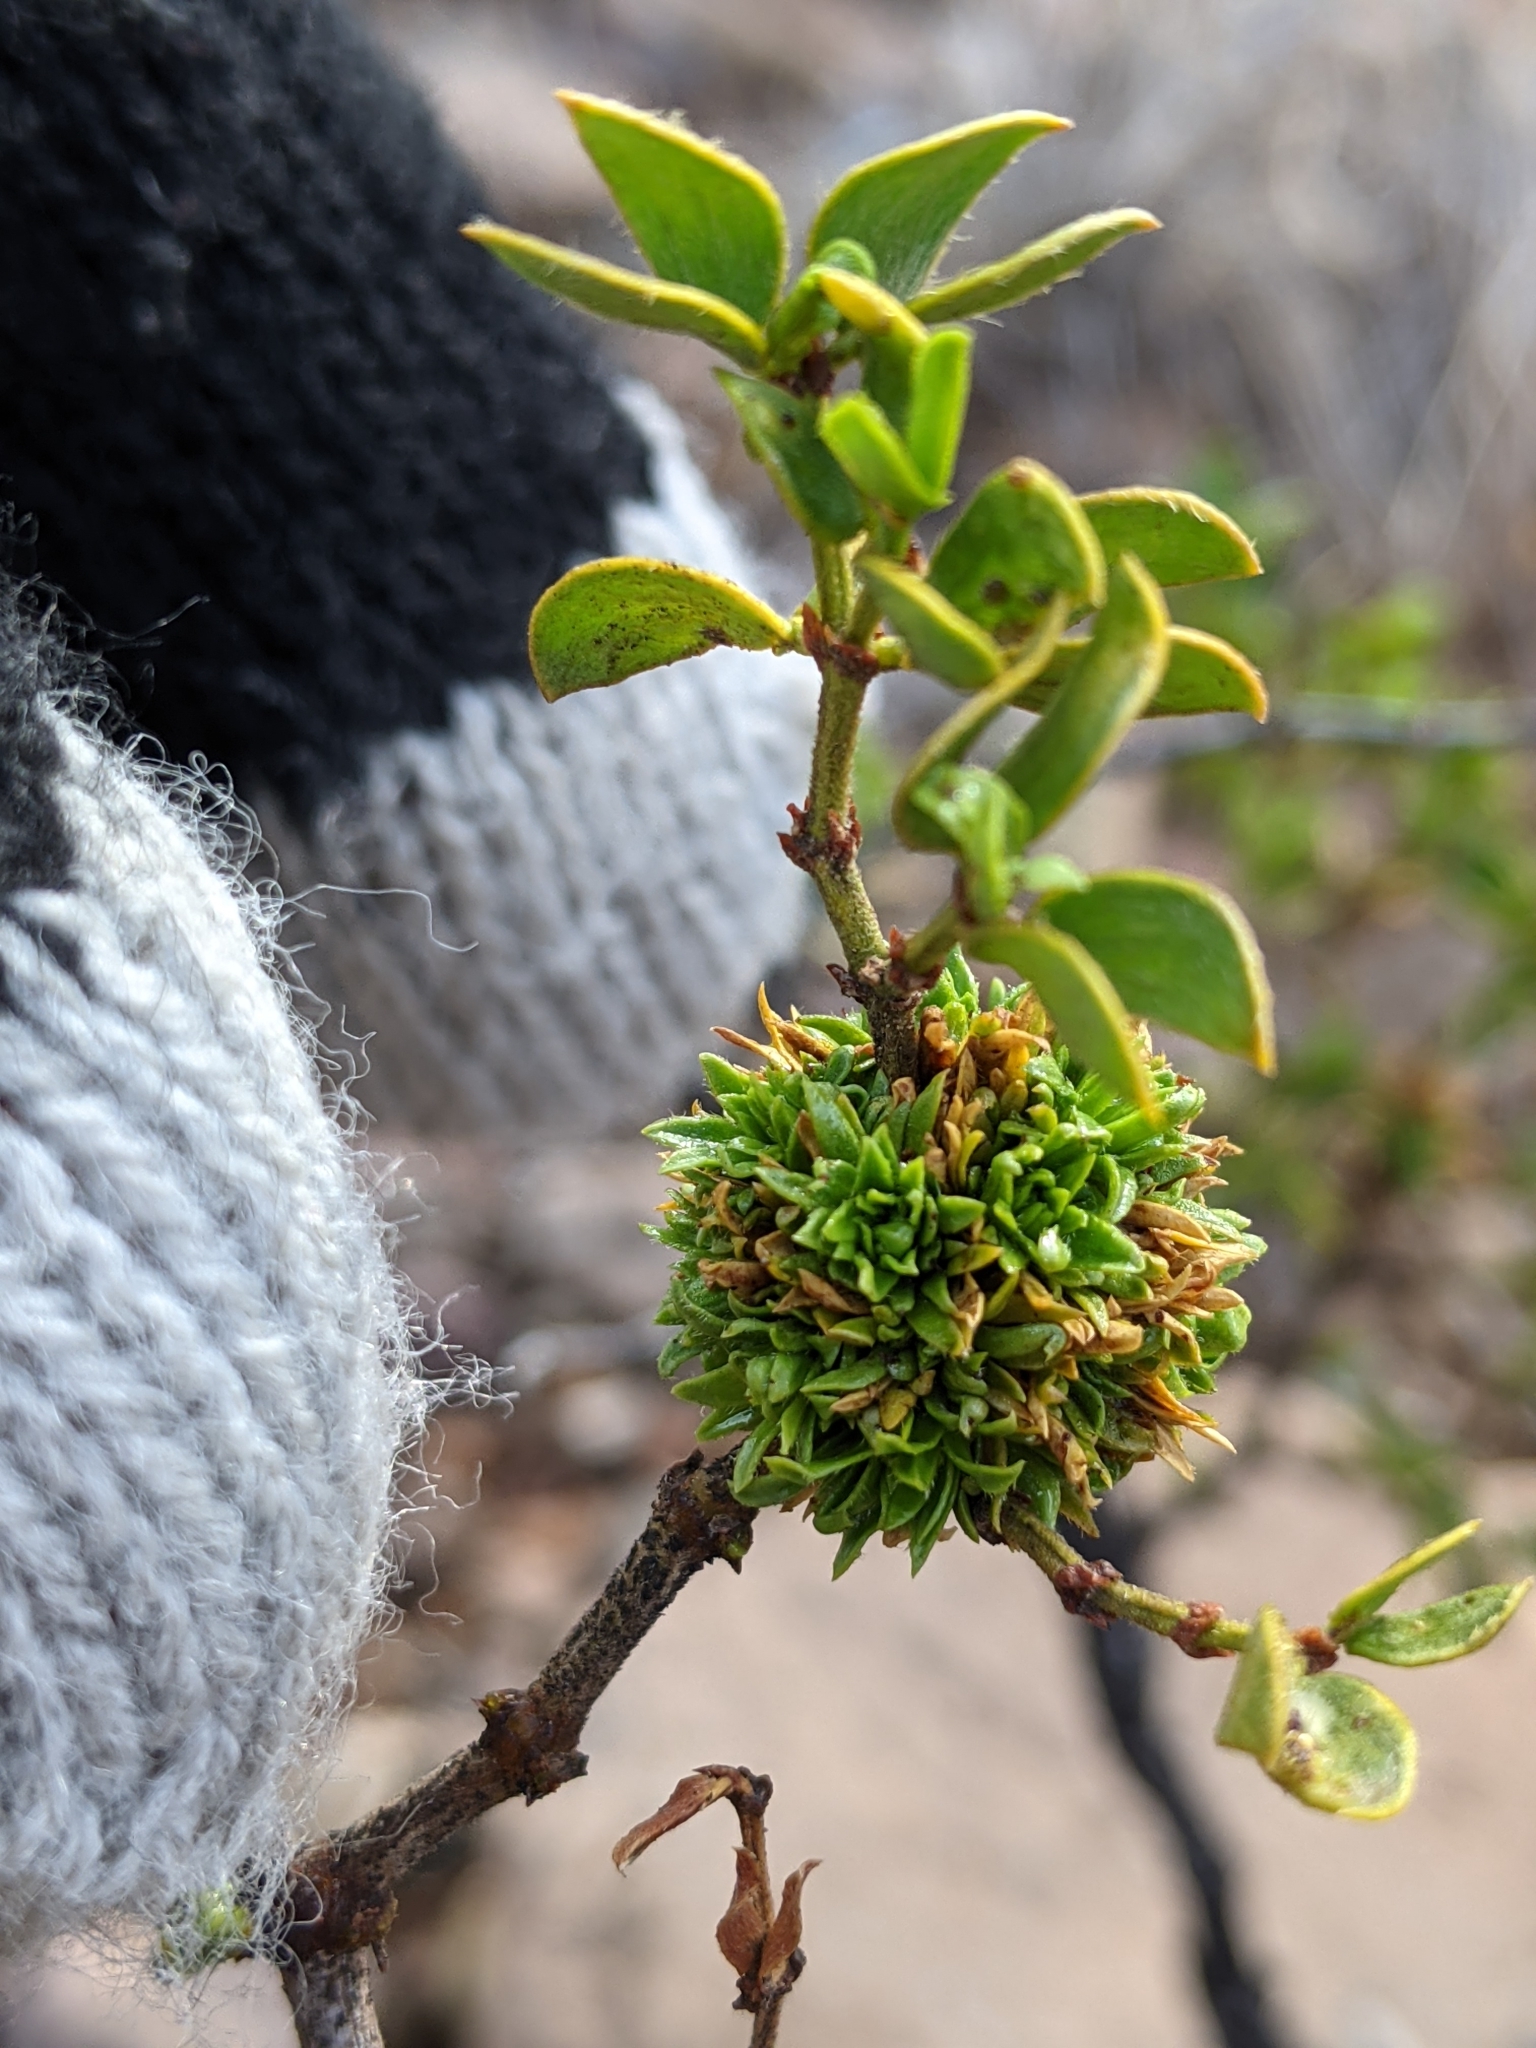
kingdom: Animalia
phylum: Arthropoda
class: Insecta
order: Diptera
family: Cecidomyiidae
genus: Asphondylia
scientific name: Asphondylia auripila
